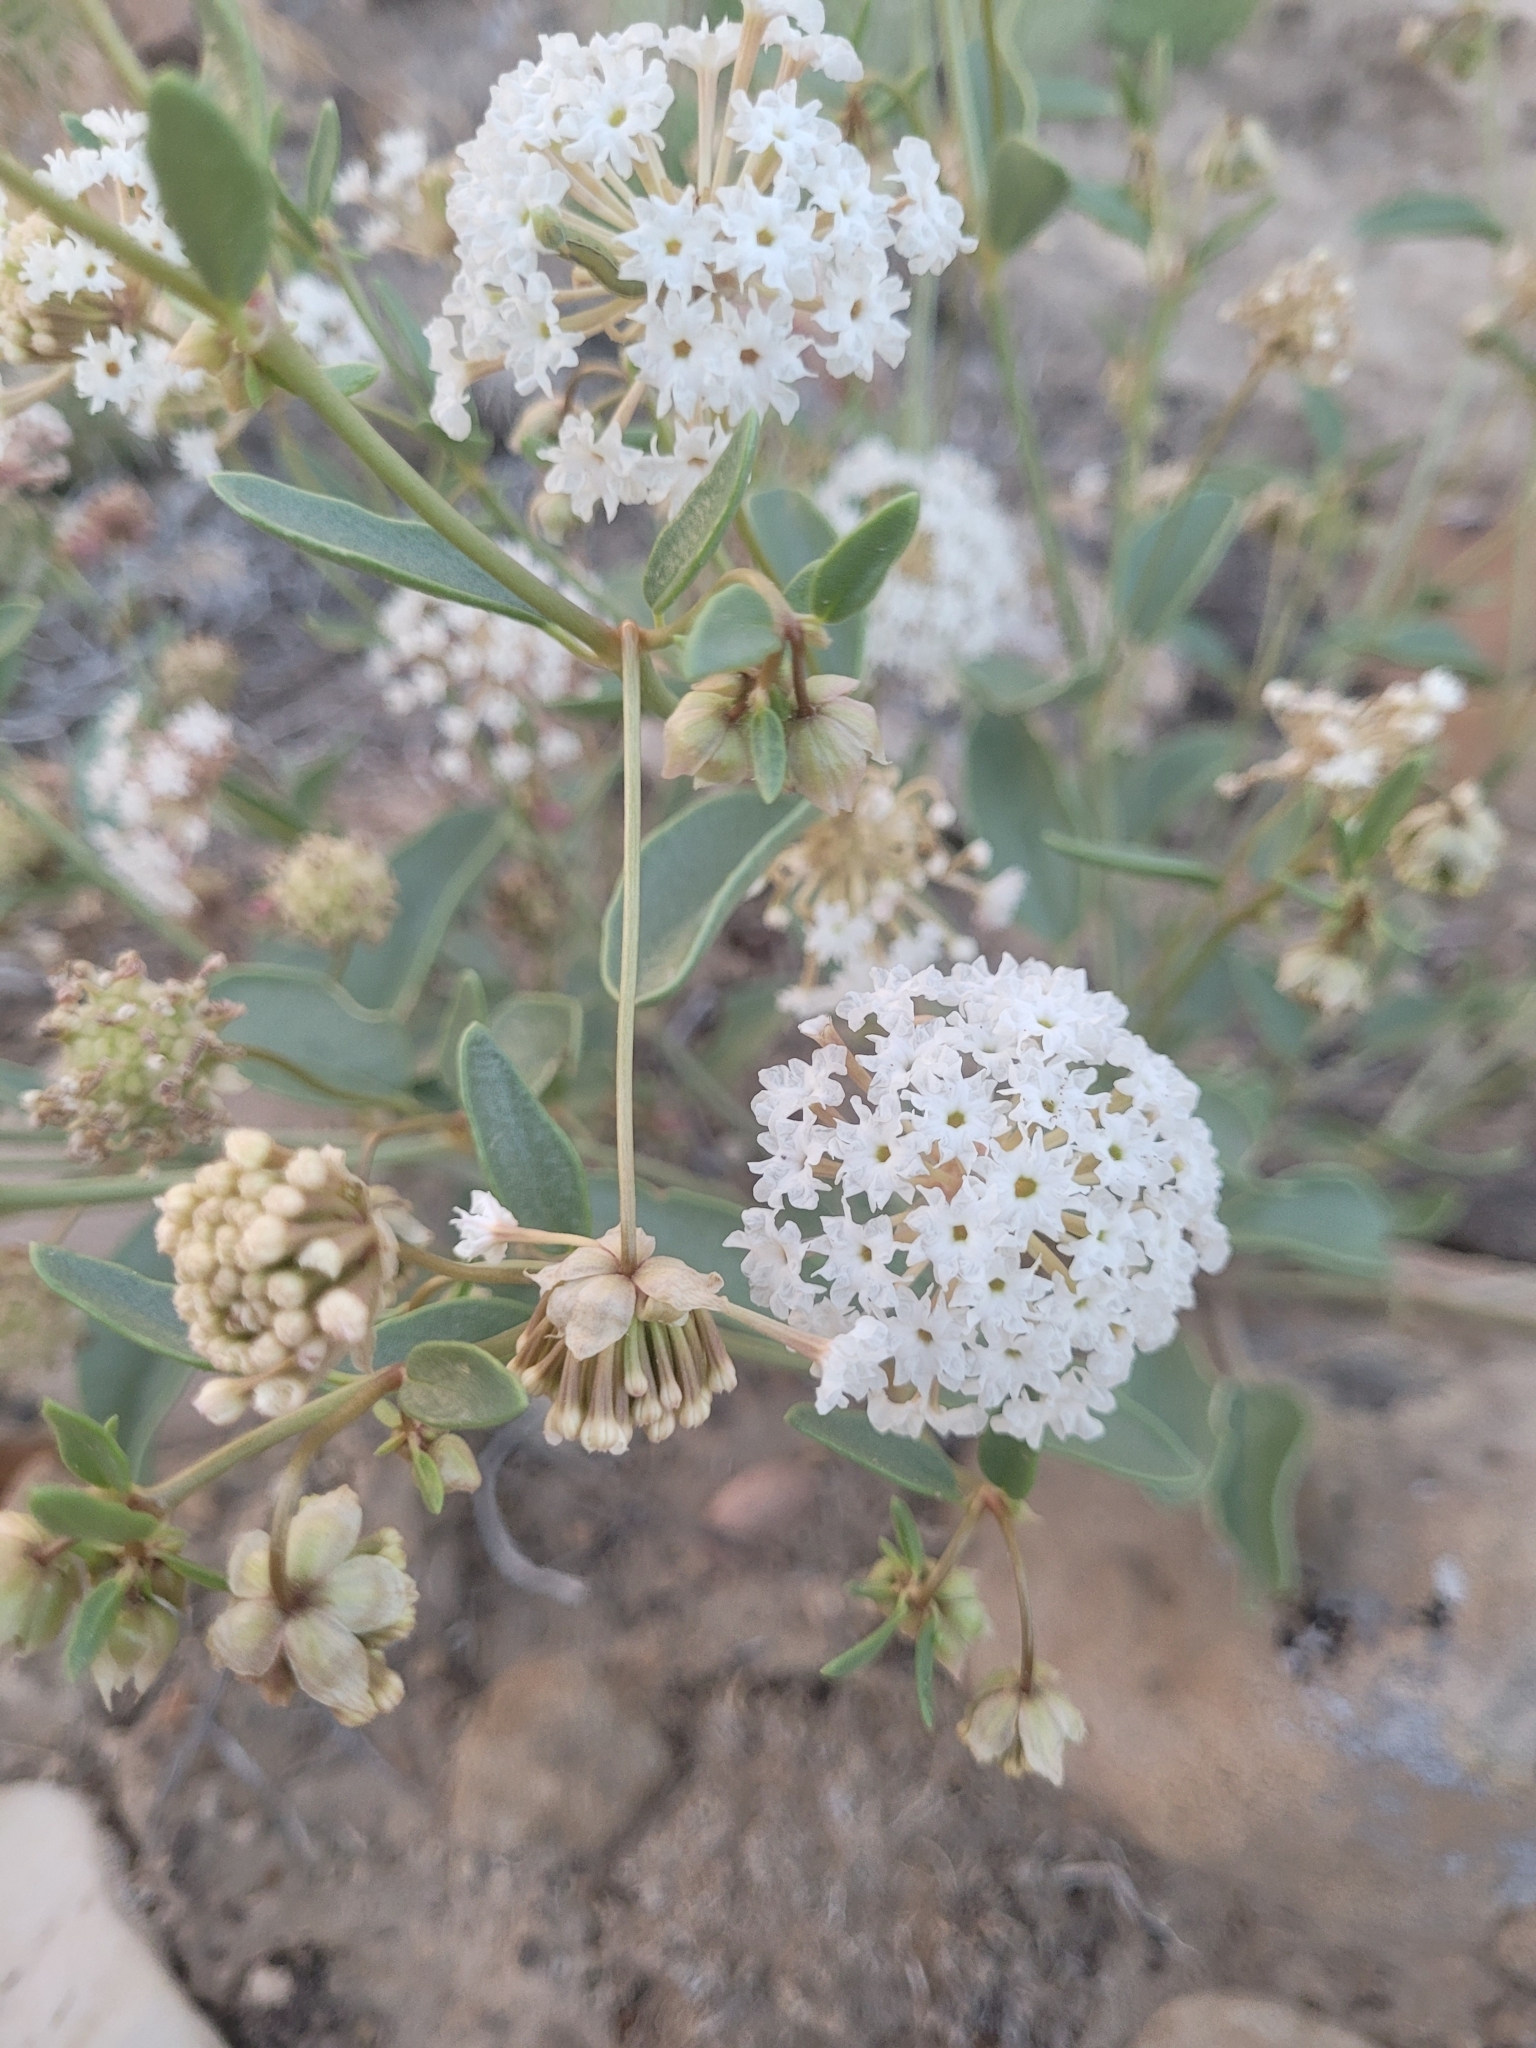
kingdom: Plantae
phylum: Tracheophyta
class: Magnoliopsida
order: Caryophyllales
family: Nyctaginaceae
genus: Abronia
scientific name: Abronia elliptica
